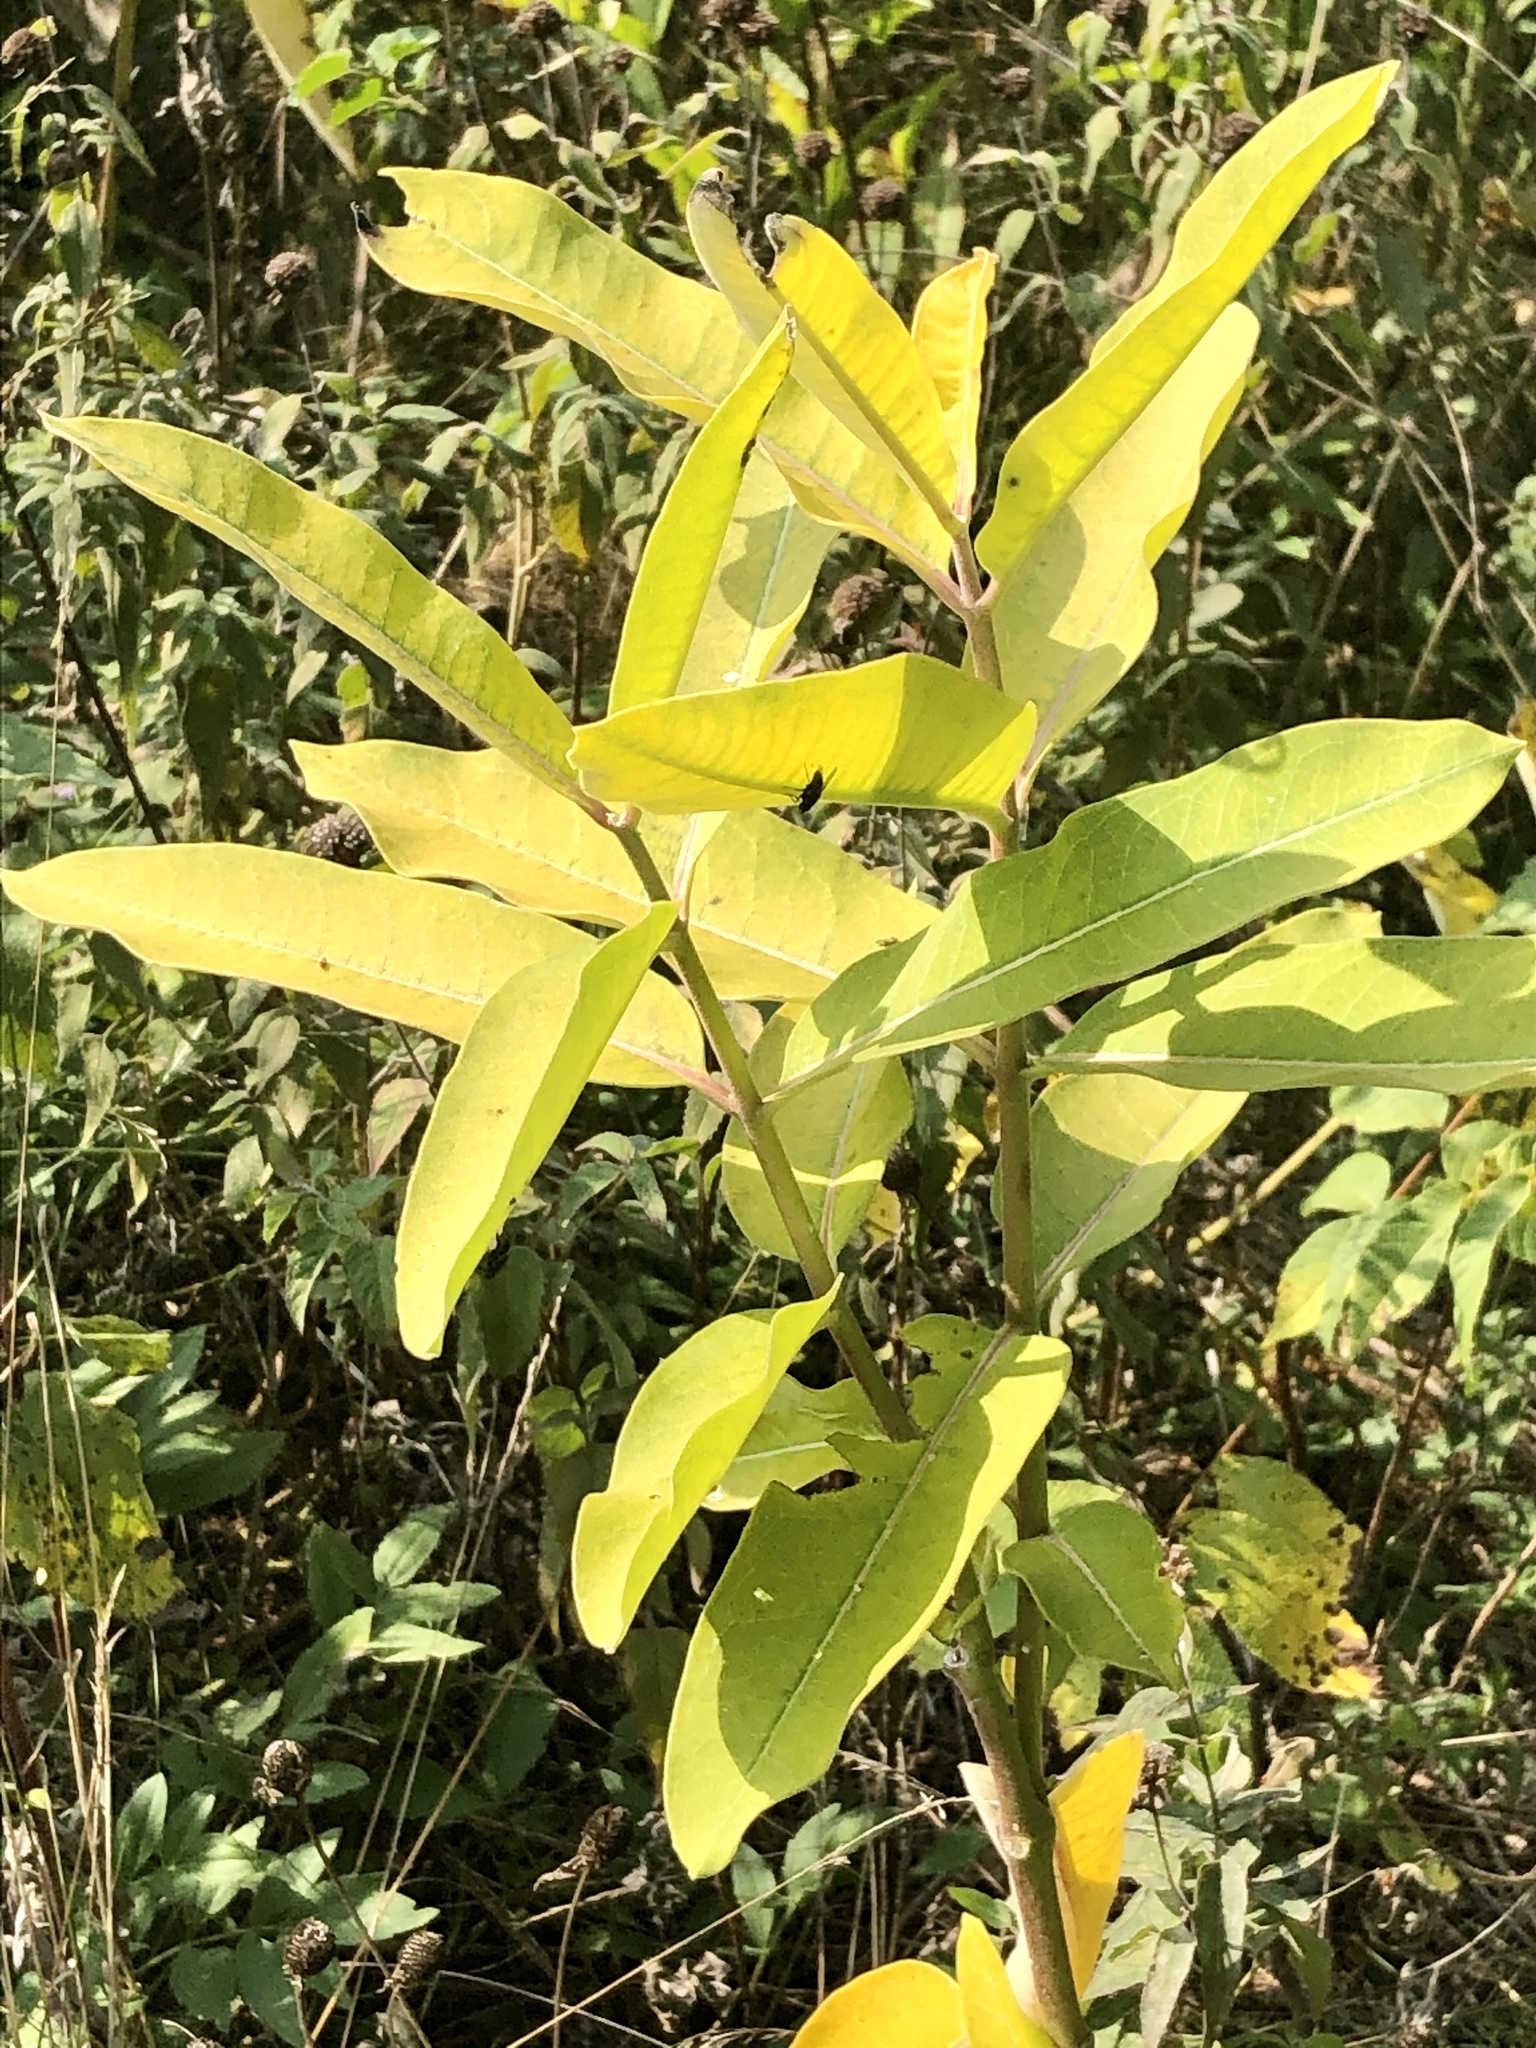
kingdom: Plantae
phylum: Tracheophyta
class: Magnoliopsida
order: Gentianales
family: Apocynaceae
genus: Asclepias
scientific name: Asclepias syriaca
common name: Common milkweed
